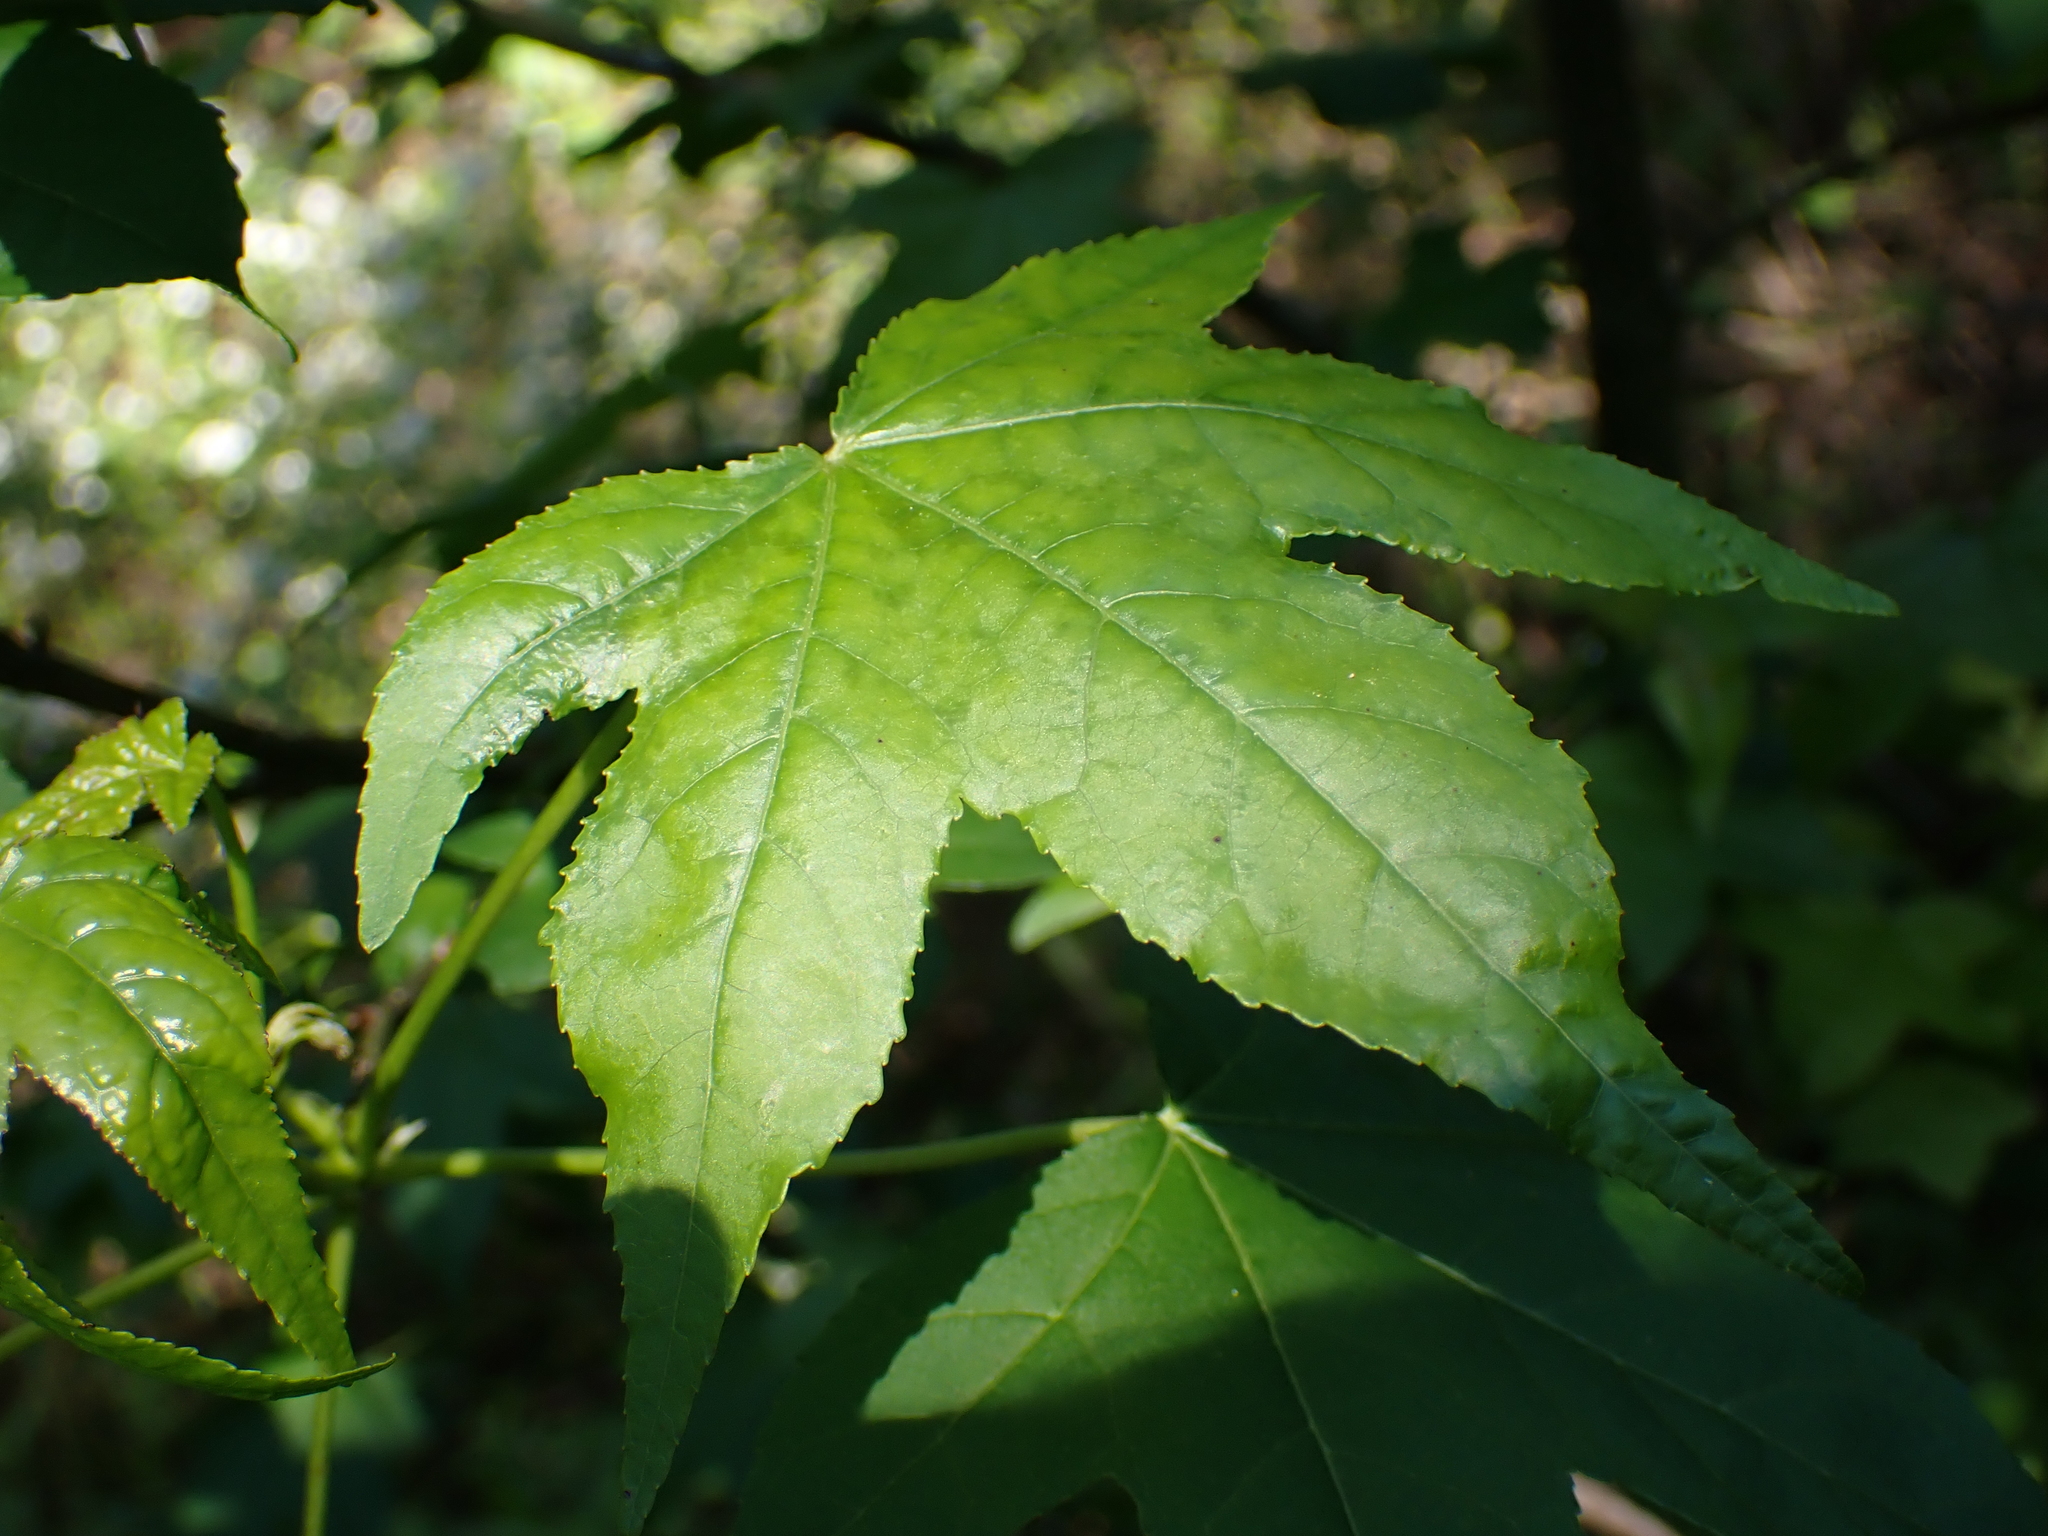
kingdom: Plantae
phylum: Tracheophyta
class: Magnoliopsida
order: Saxifragales
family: Altingiaceae
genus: Liquidambar
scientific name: Liquidambar styraciflua
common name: Sweet gum
